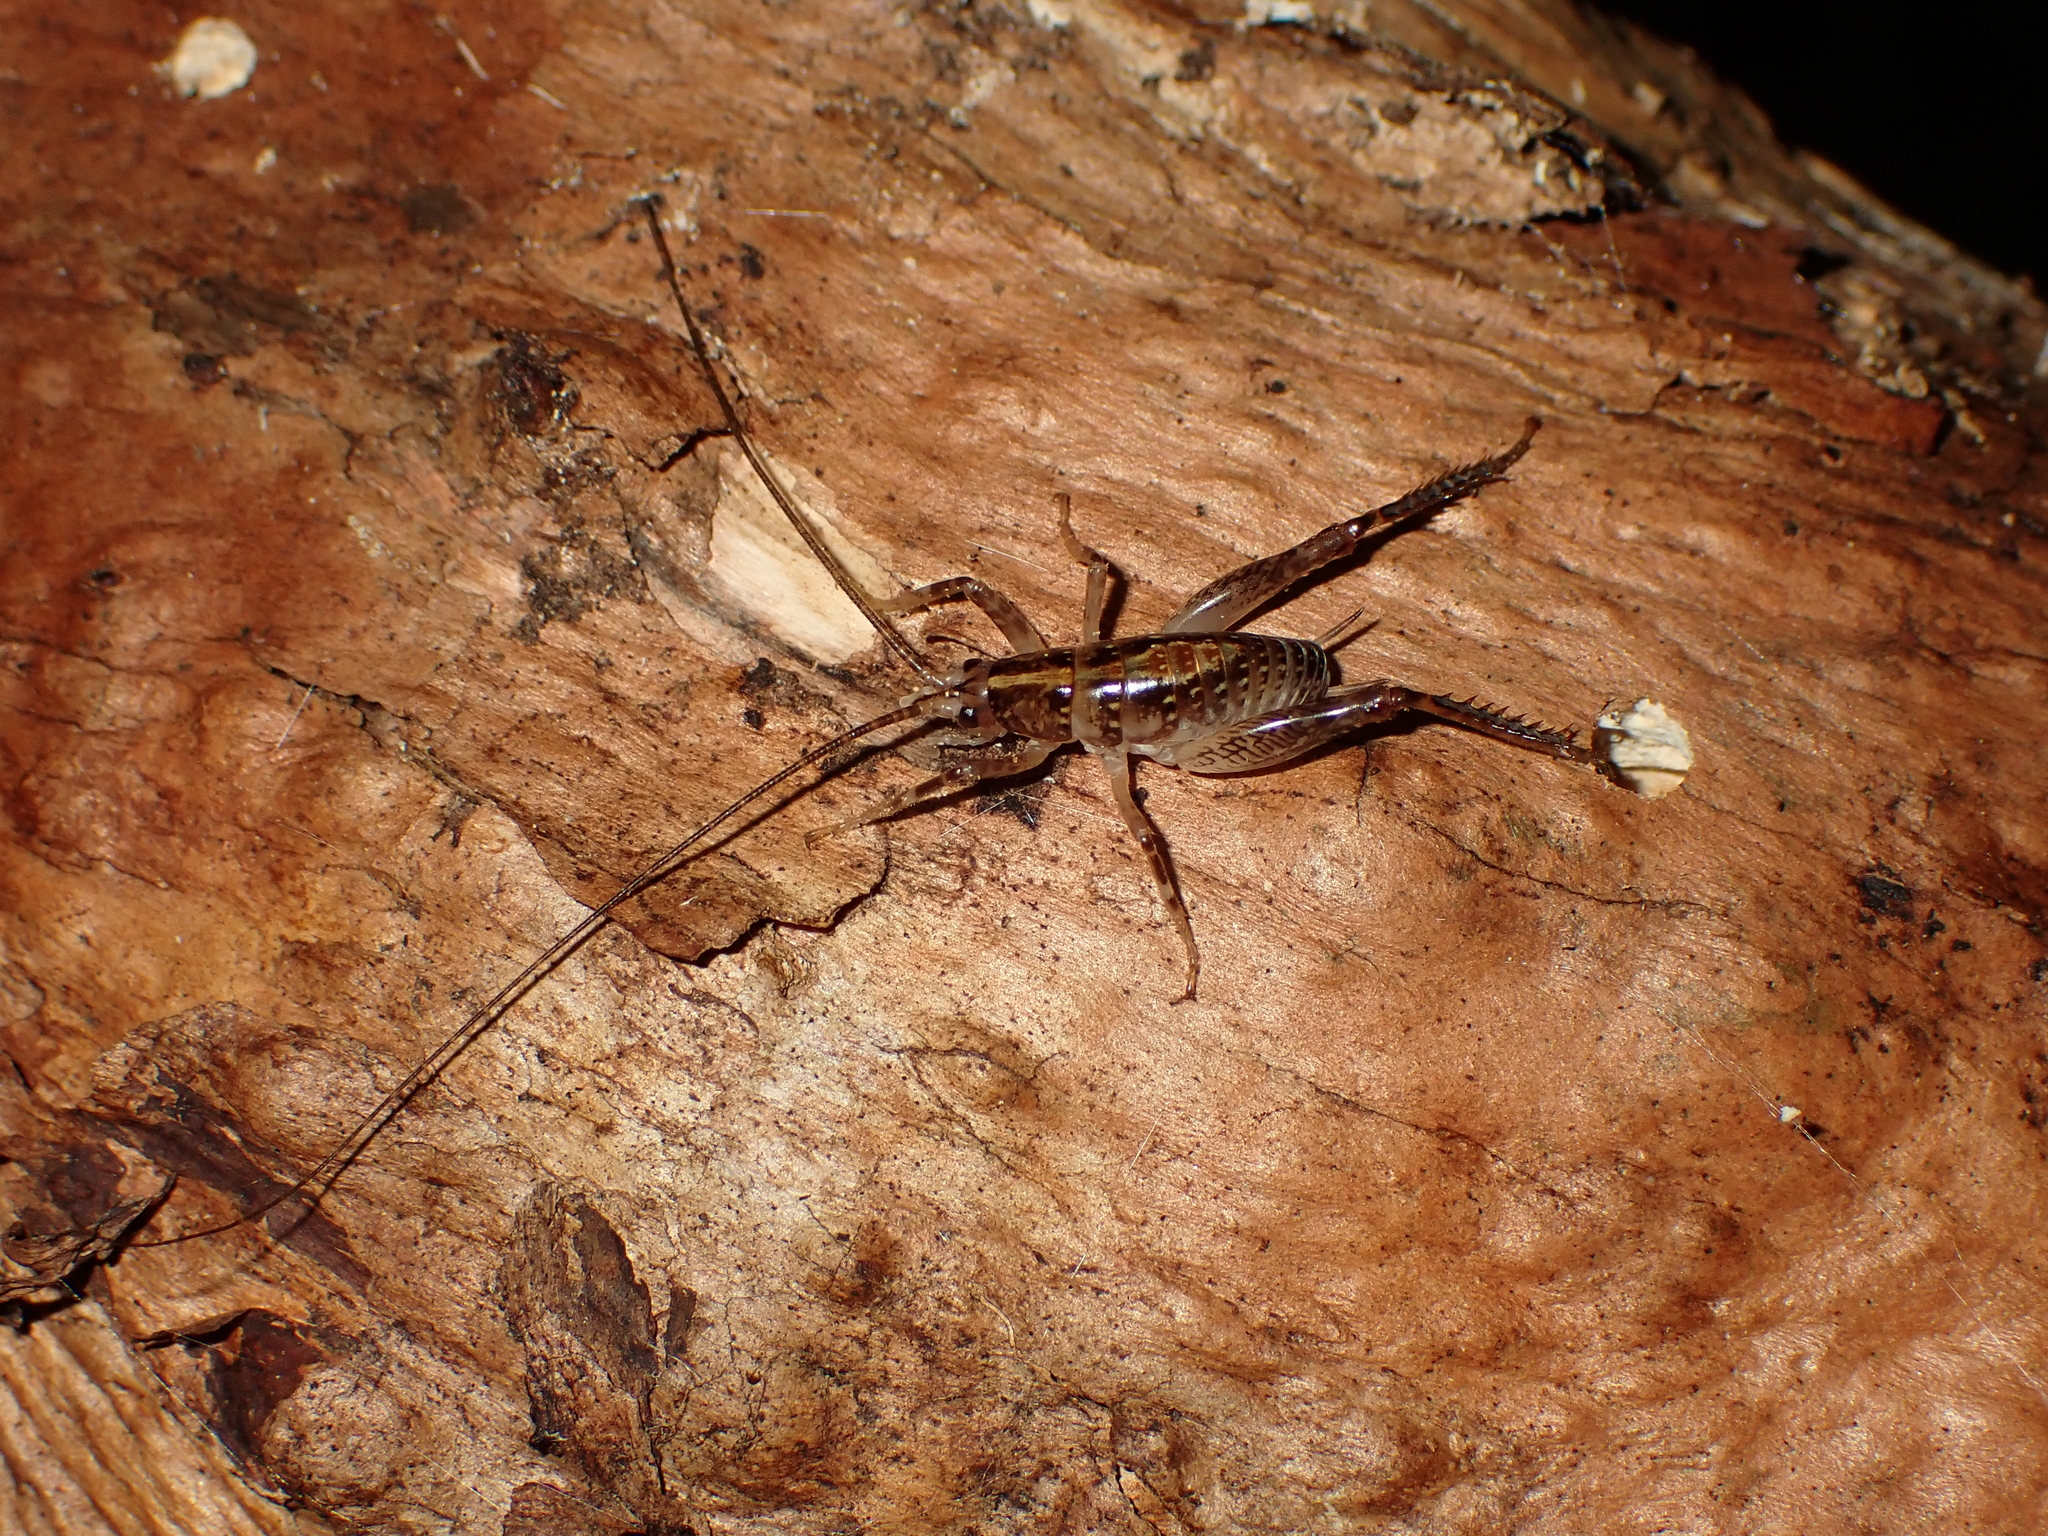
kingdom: Animalia
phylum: Arthropoda
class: Insecta
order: Orthoptera
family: Rhaphidophoridae
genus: Talitropsis
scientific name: Talitropsis sedilloti
